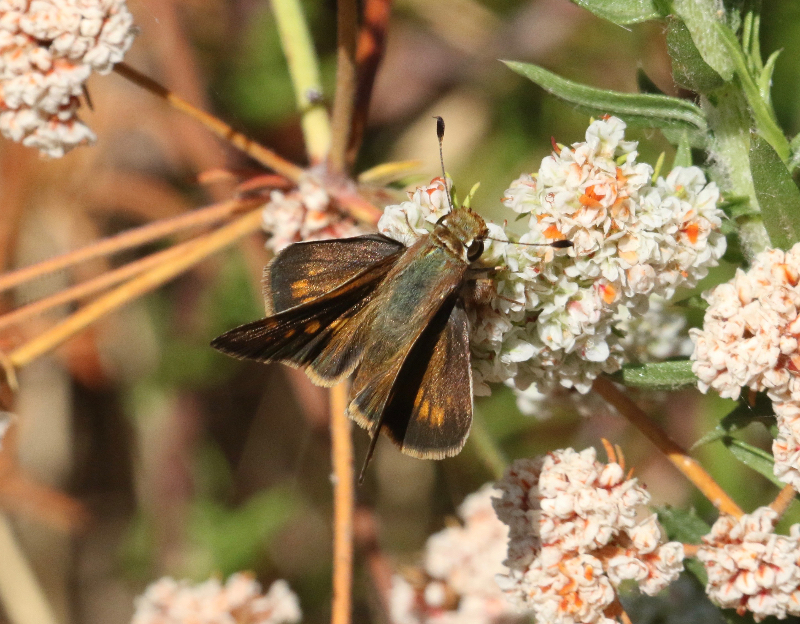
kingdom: Animalia
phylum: Arthropoda
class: Insecta
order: Lepidoptera
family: Hesperiidae
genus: Lon
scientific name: Lon melane
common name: Umber skipper
